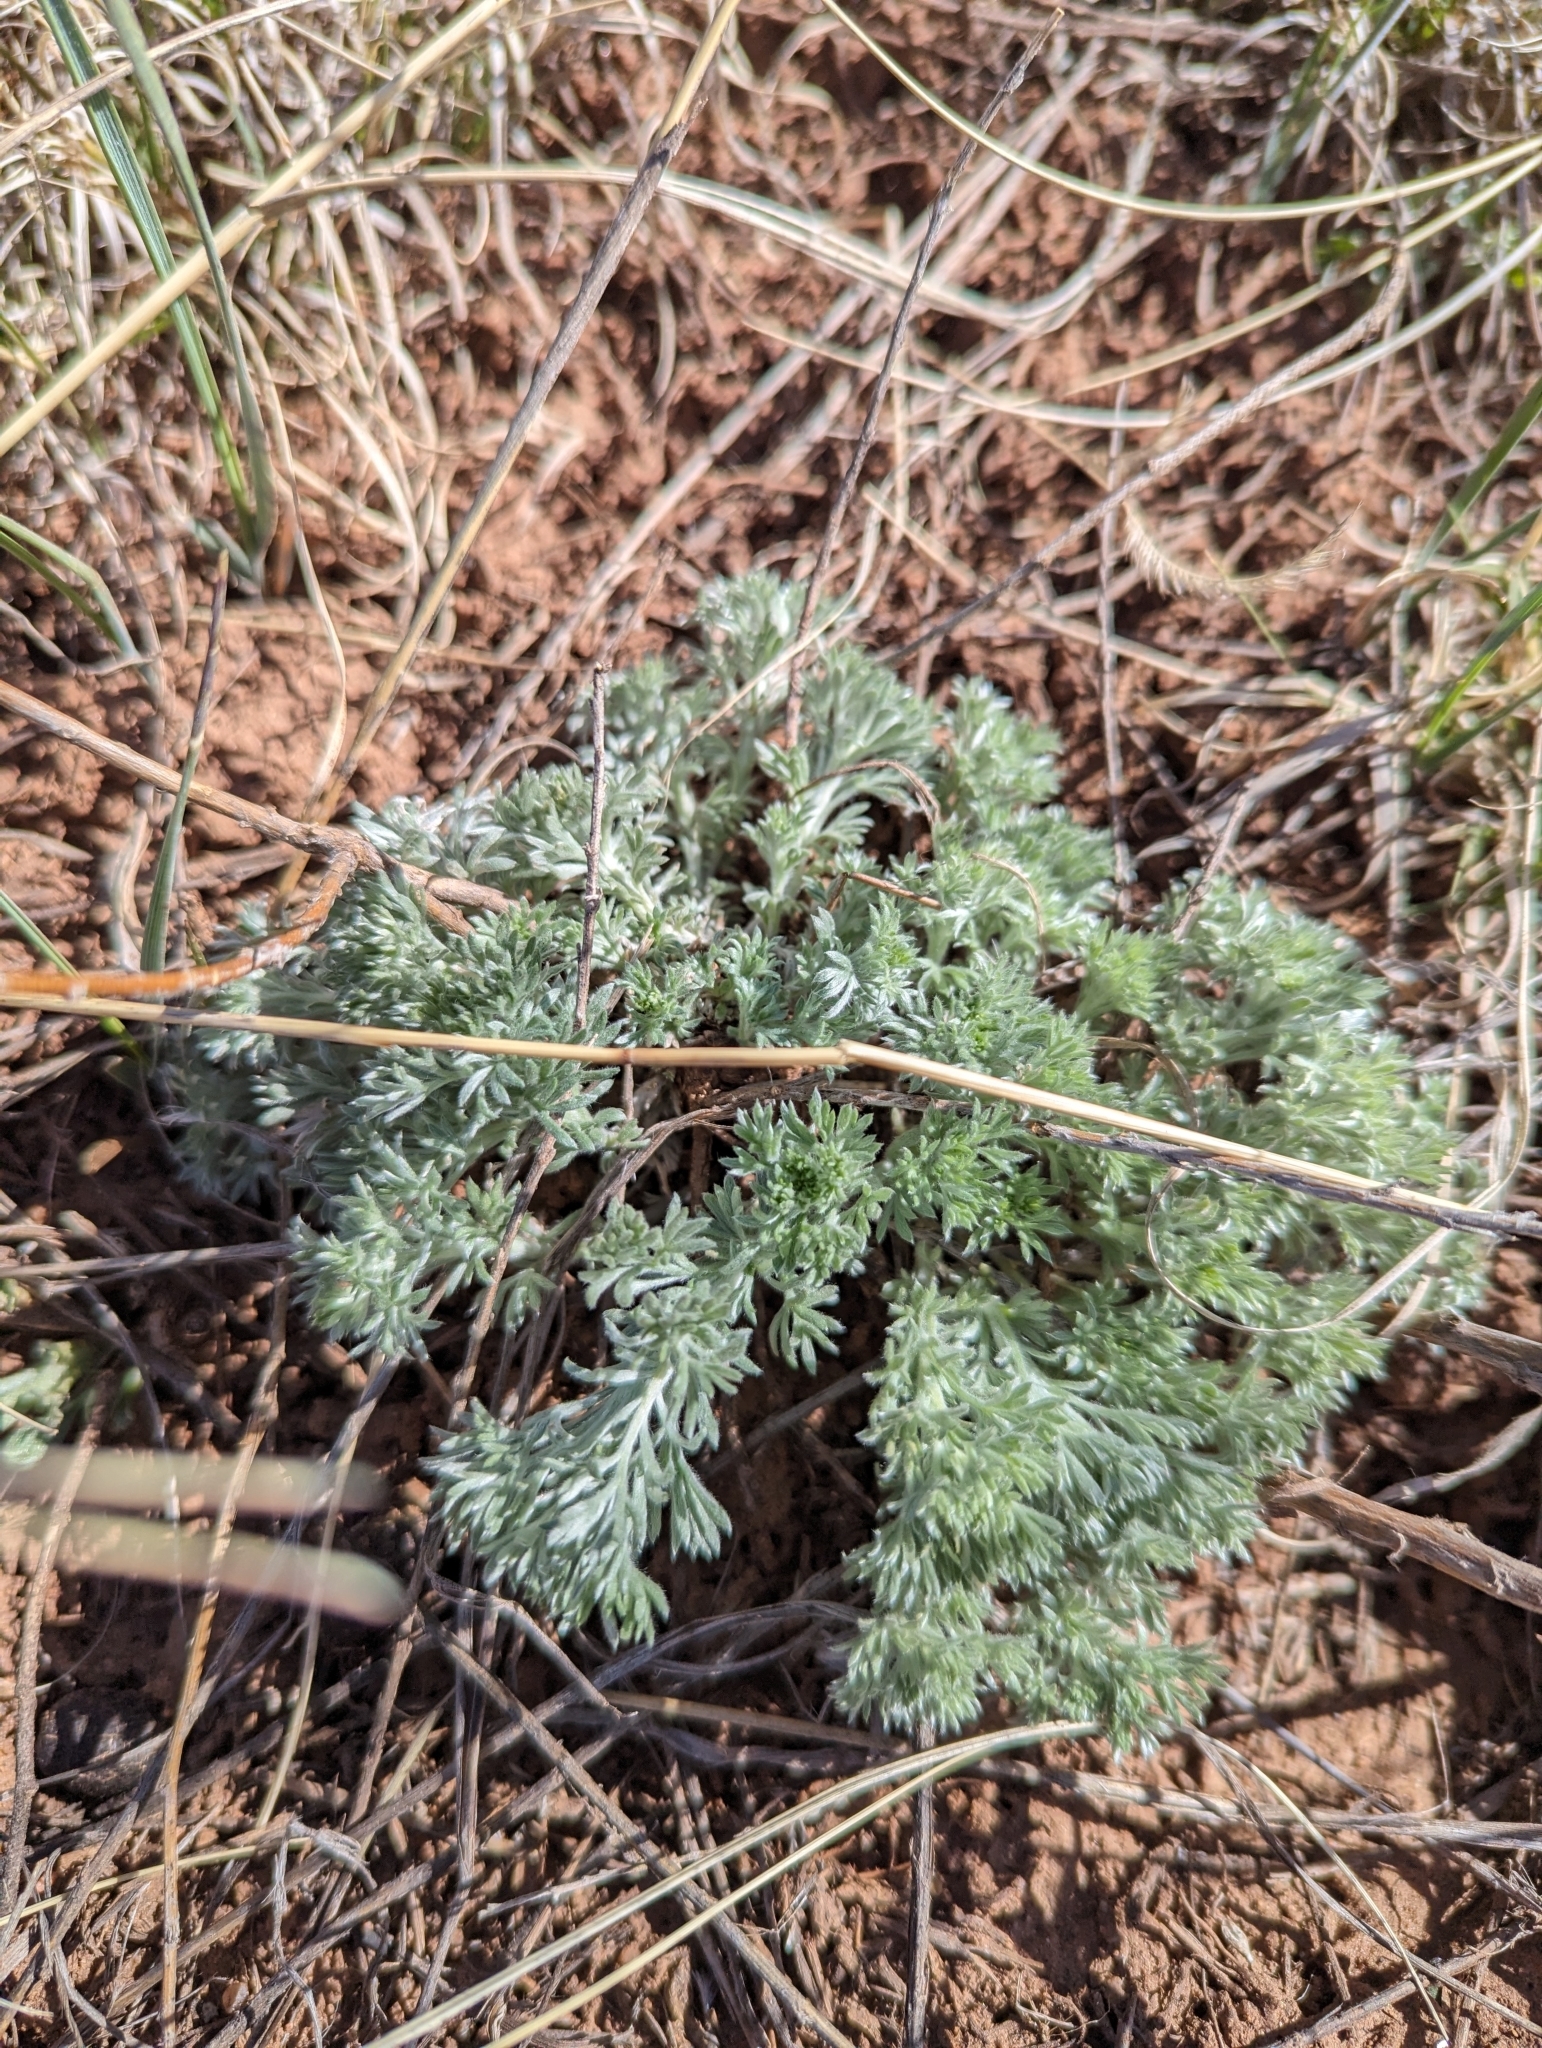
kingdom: Plantae
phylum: Tracheophyta
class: Magnoliopsida
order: Asterales
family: Asteraceae
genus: Artemisia
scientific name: Artemisia frigida
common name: Prairie sagewort
